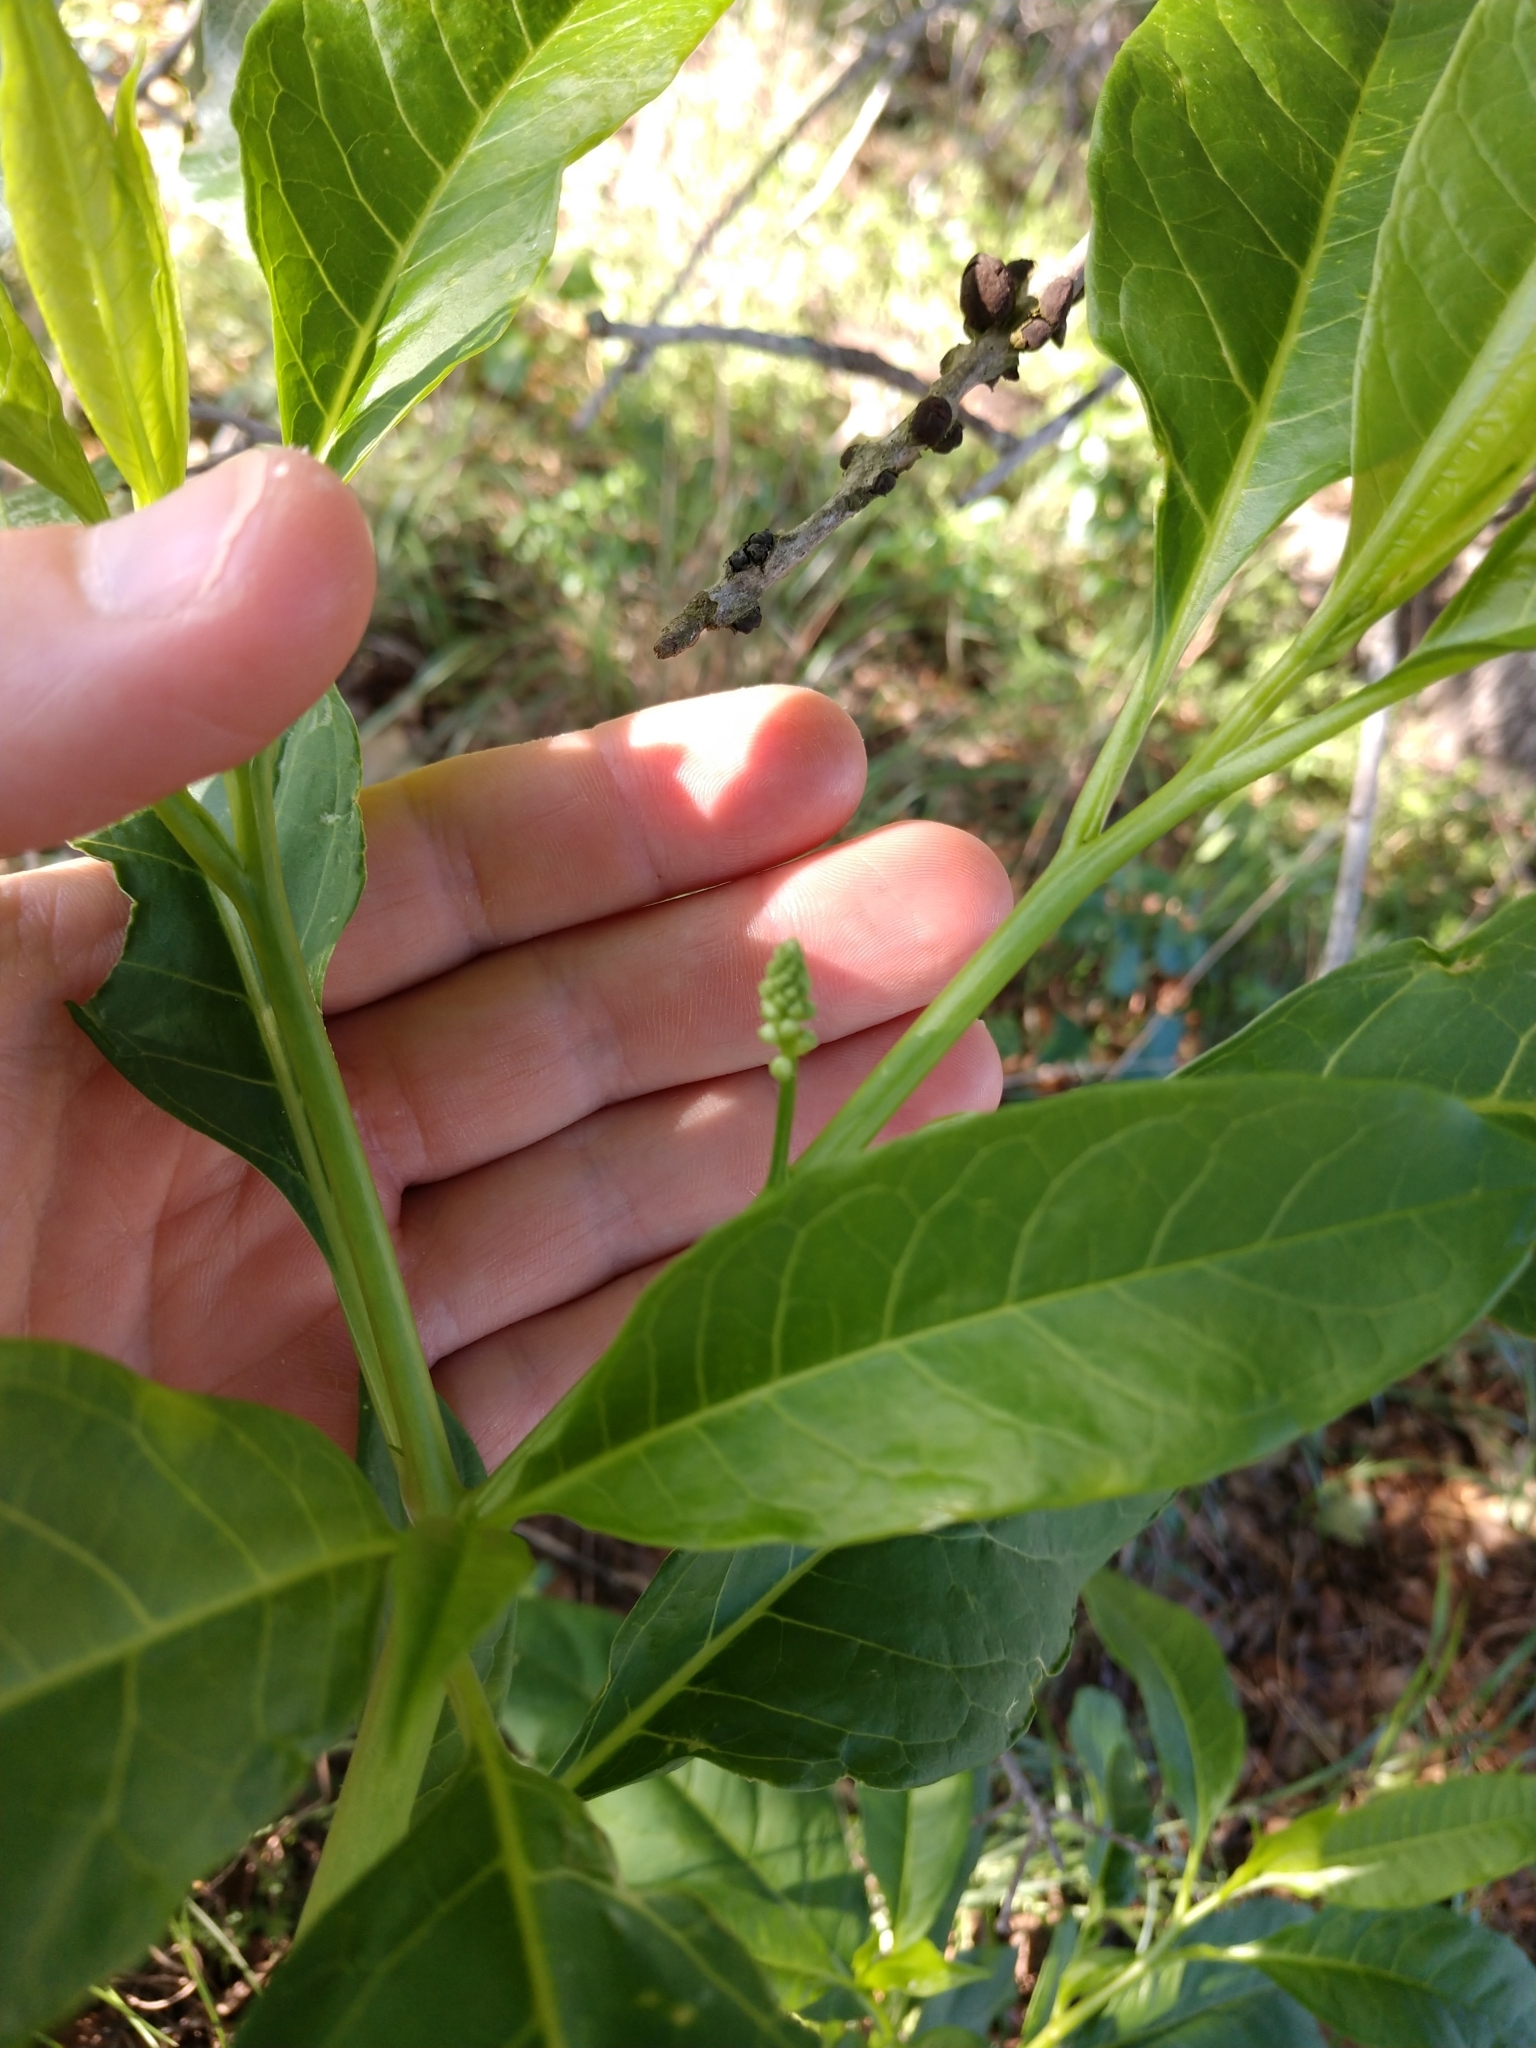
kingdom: Plantae
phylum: Tracheophyta
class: Magnoliopsida
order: Caryophyllales
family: Phytolaccaceae
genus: Phytolacca
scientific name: Phytolacca americana
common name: American pokeweed
